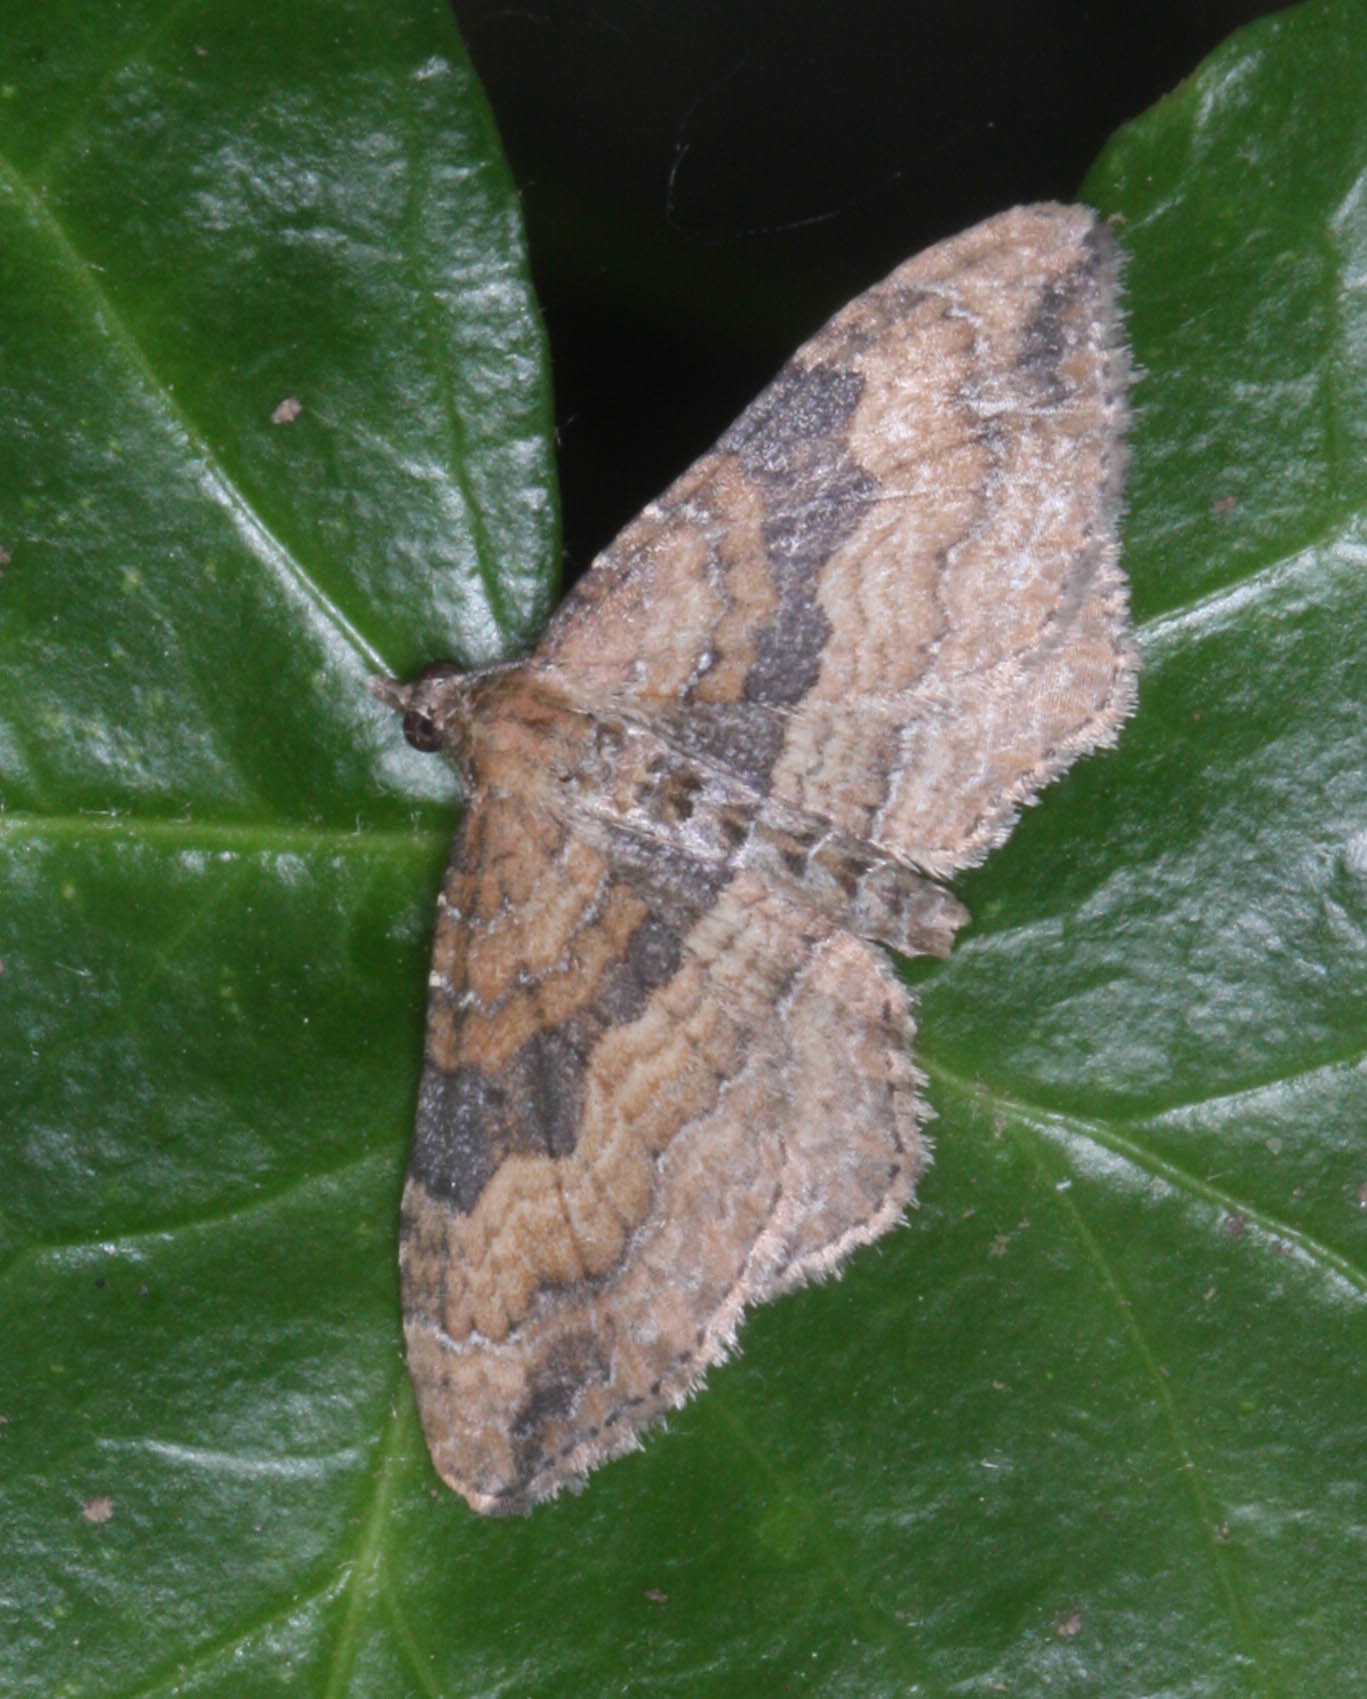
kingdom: Animalia
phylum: Arthropoda
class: Insecta
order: Lepidoptera
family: Geometridae
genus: Orthonama
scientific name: Orthonama obstipata
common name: The gem
